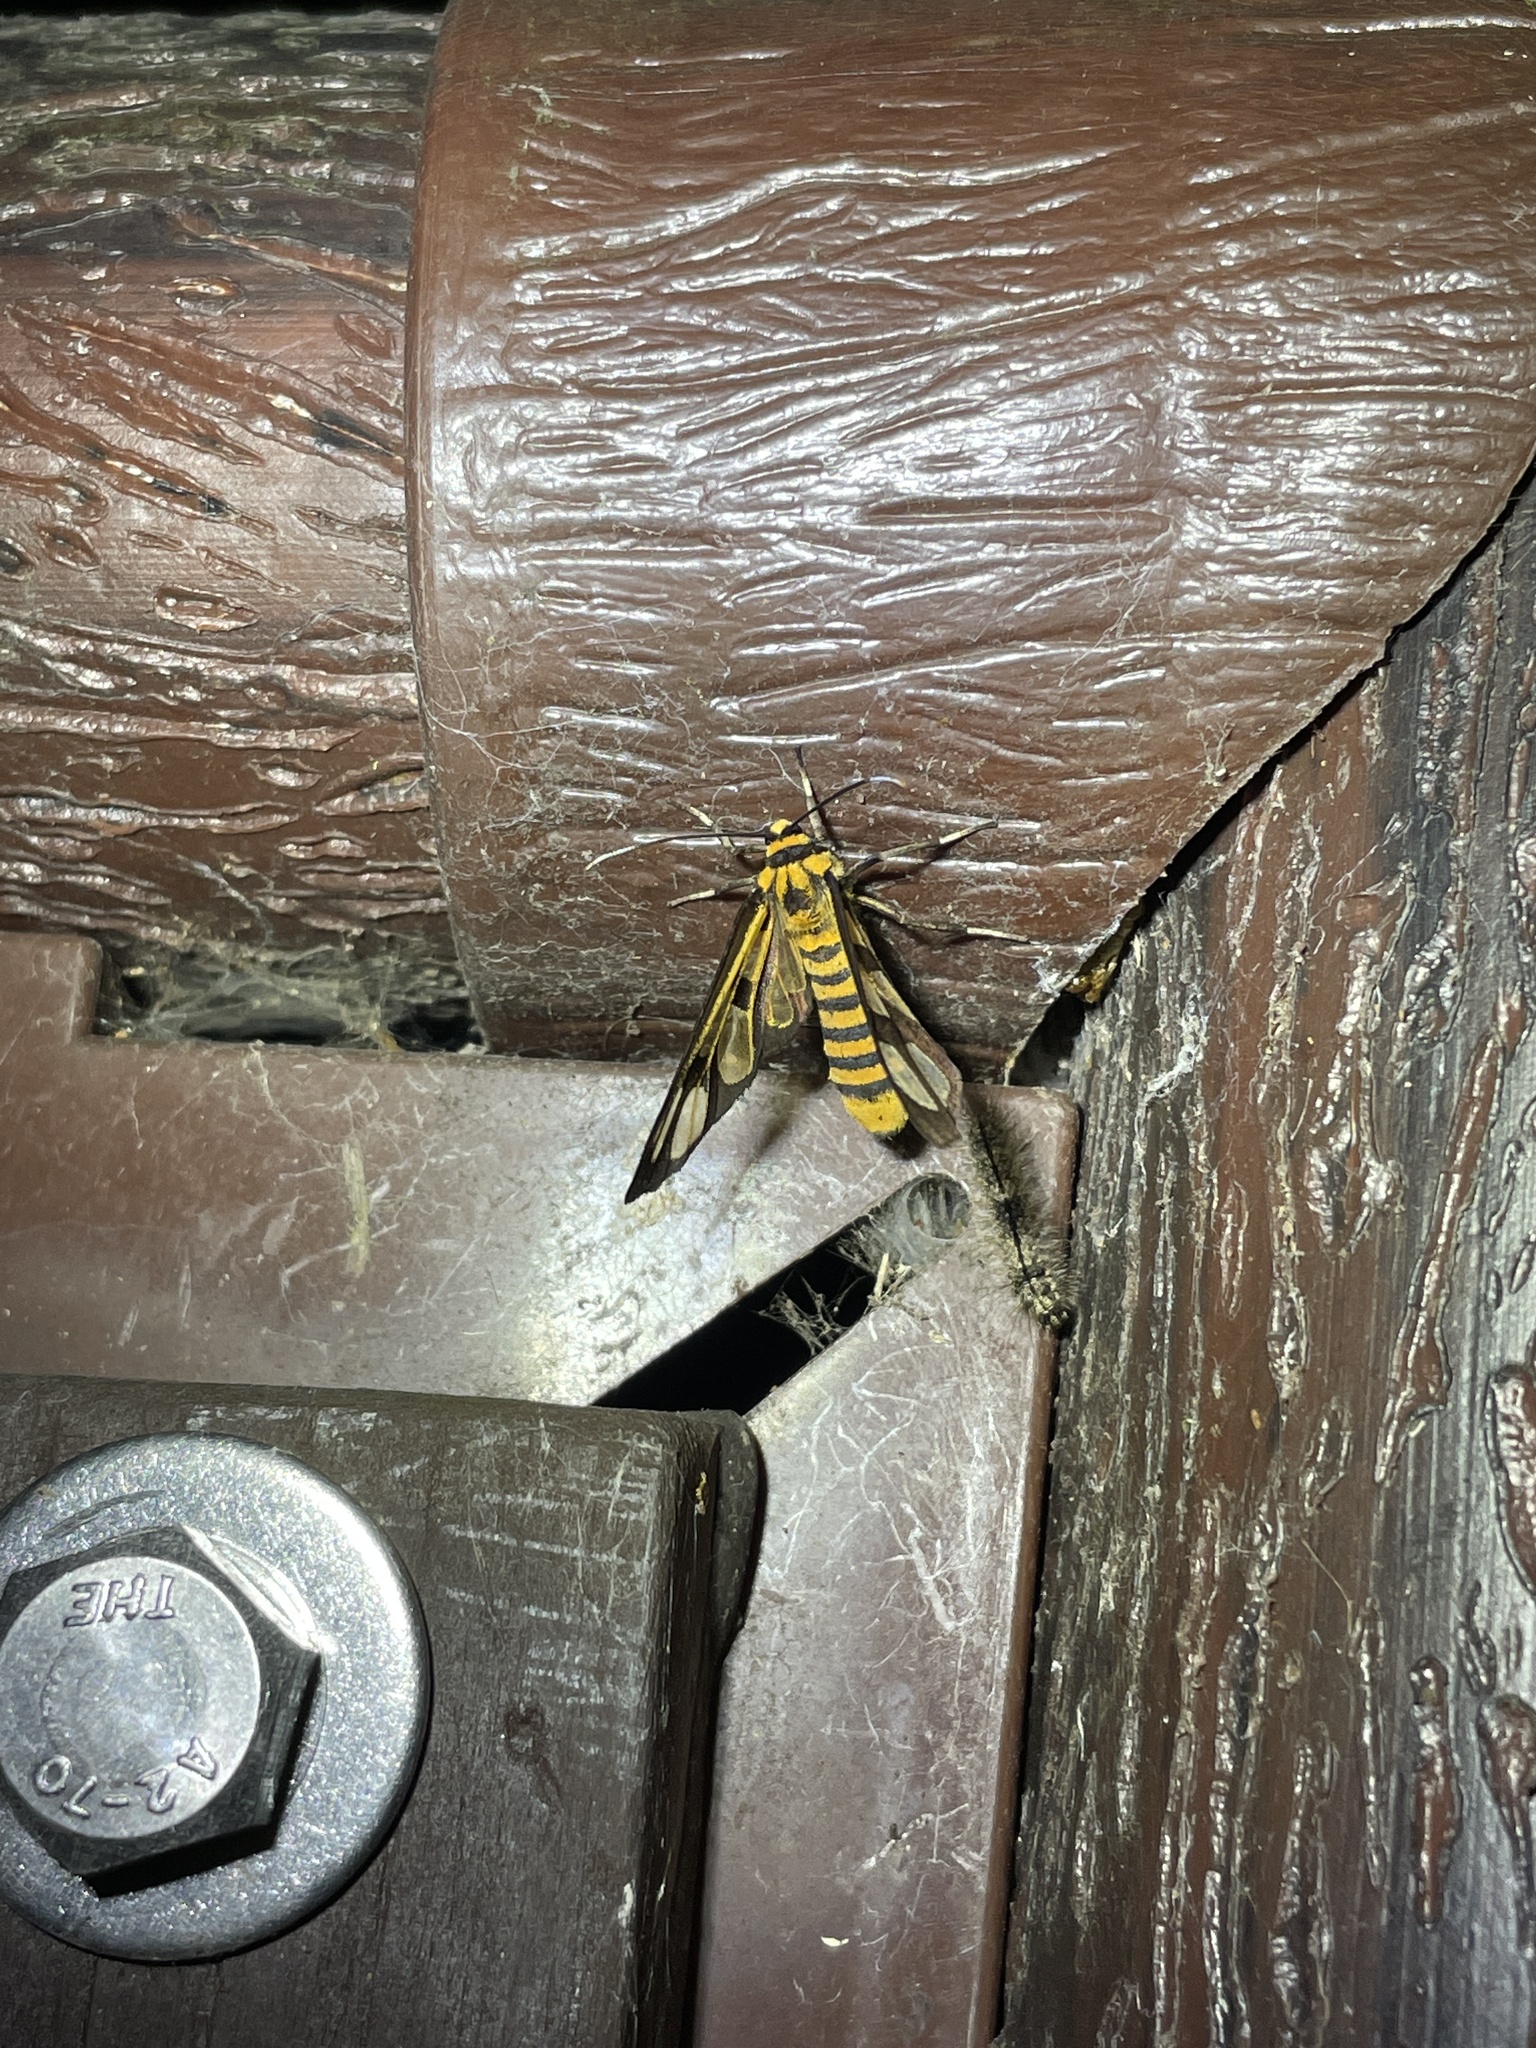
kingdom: Animalia
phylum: Arthropoda
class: Insecta
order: Lepidoptera
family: Erebidae
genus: Amata
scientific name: Amata polymita
